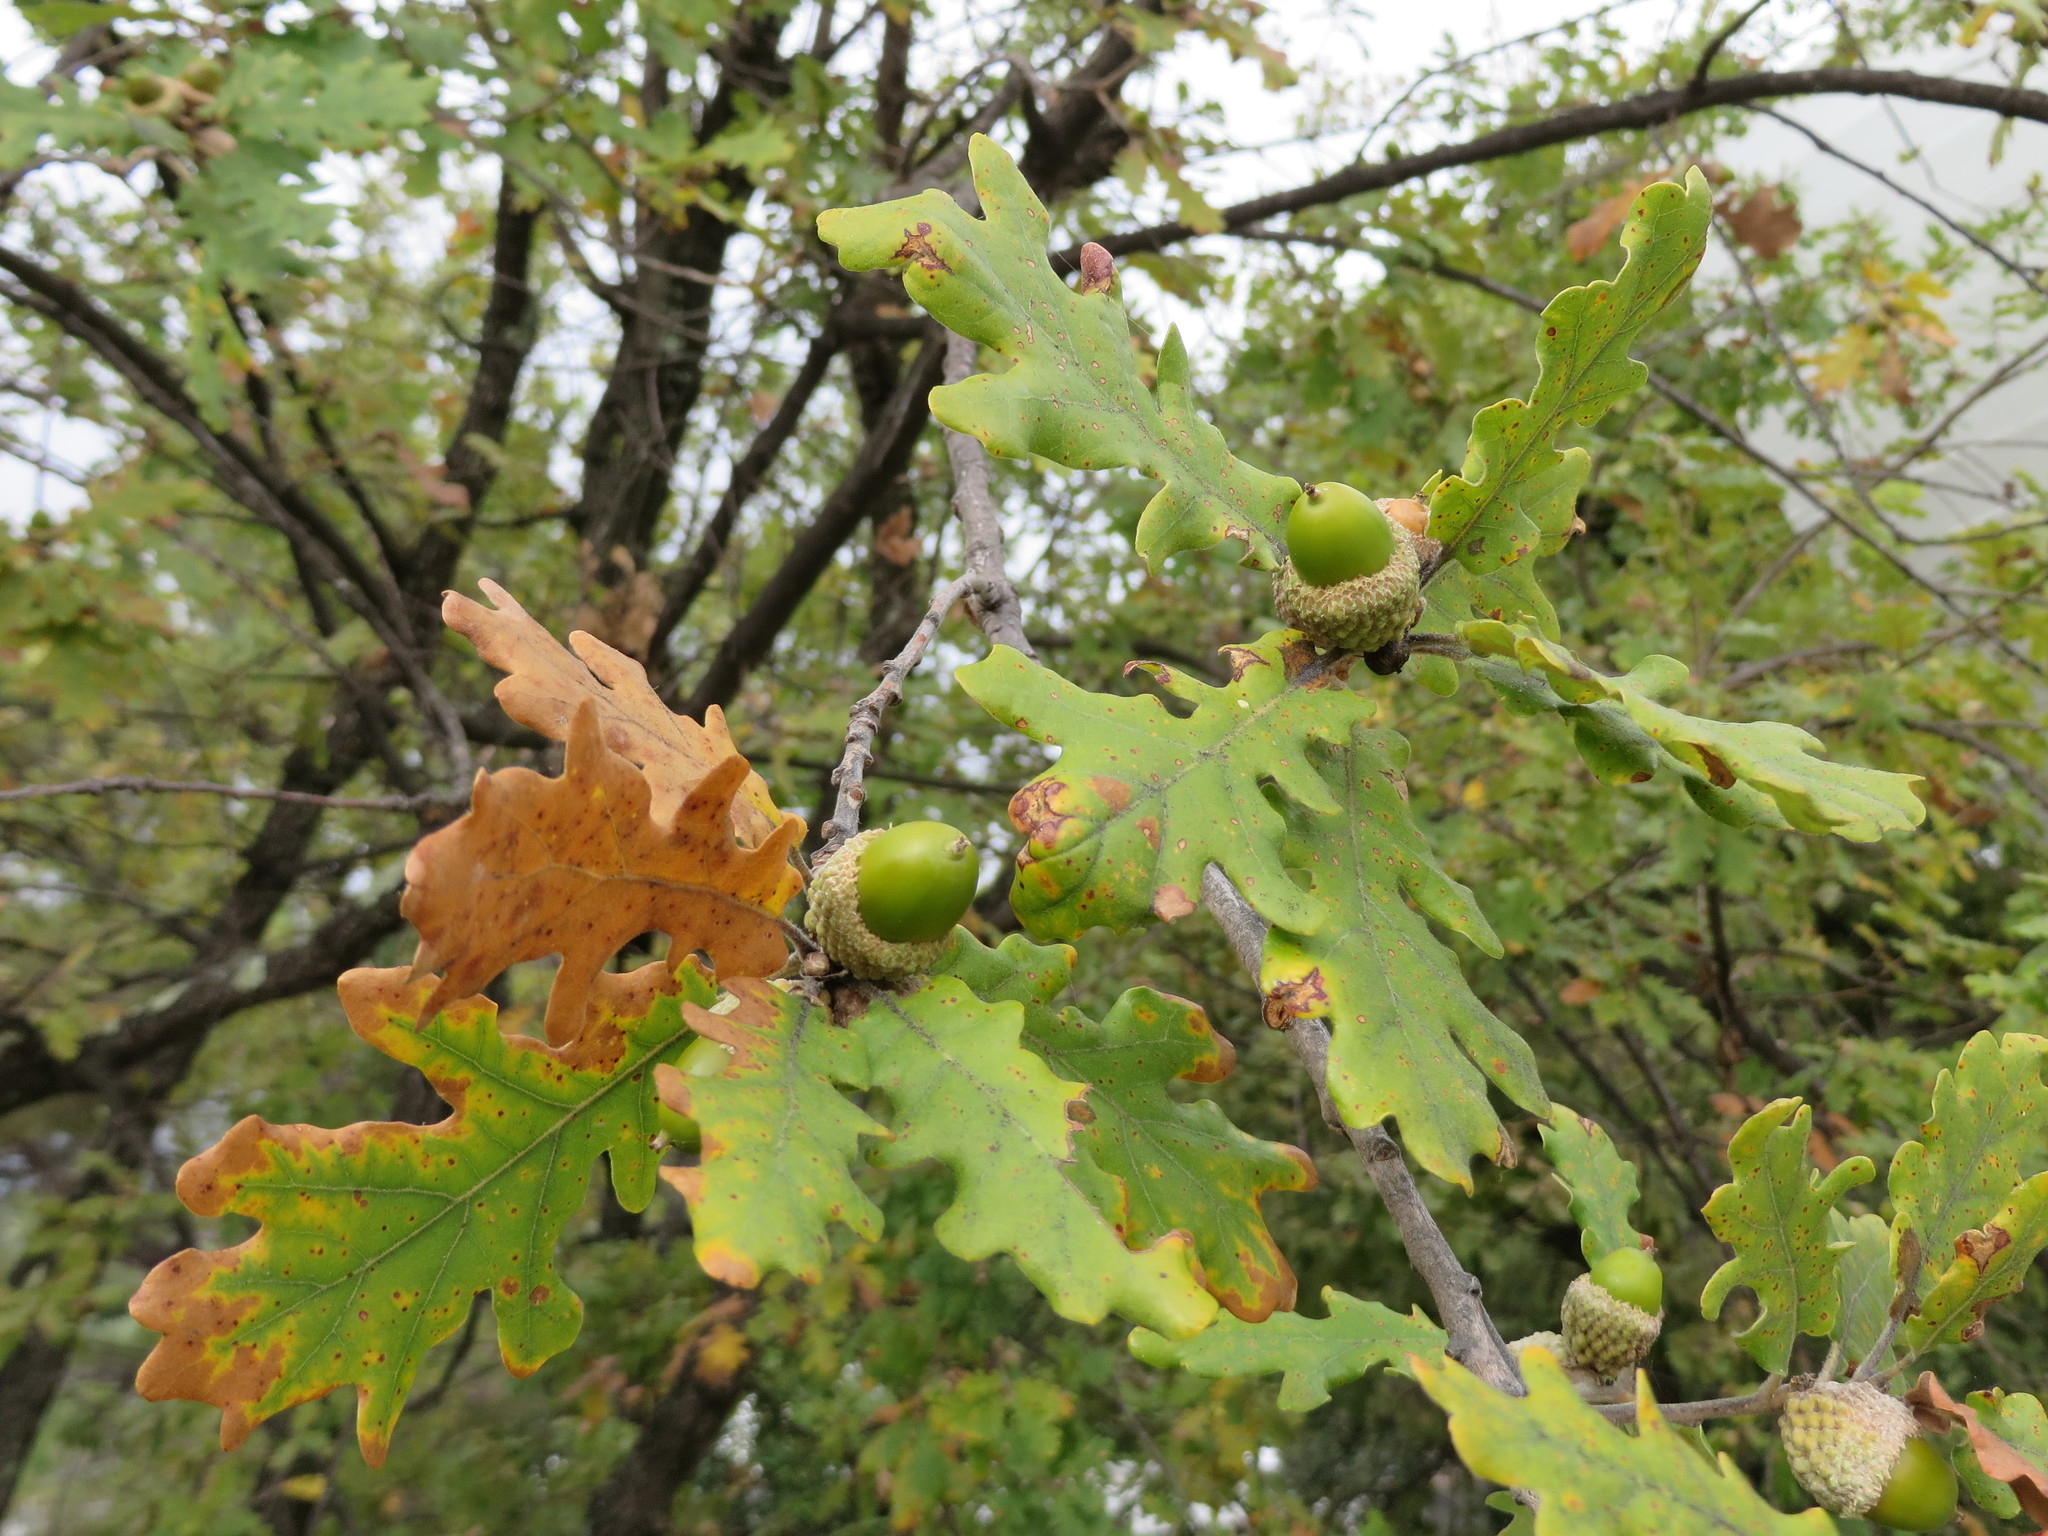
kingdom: Plantae
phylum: Tracheophyta
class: Magnoliopsida
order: Fagales
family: Fagaceae
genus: Quercus
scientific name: Quercus pubescens
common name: Downy oak
